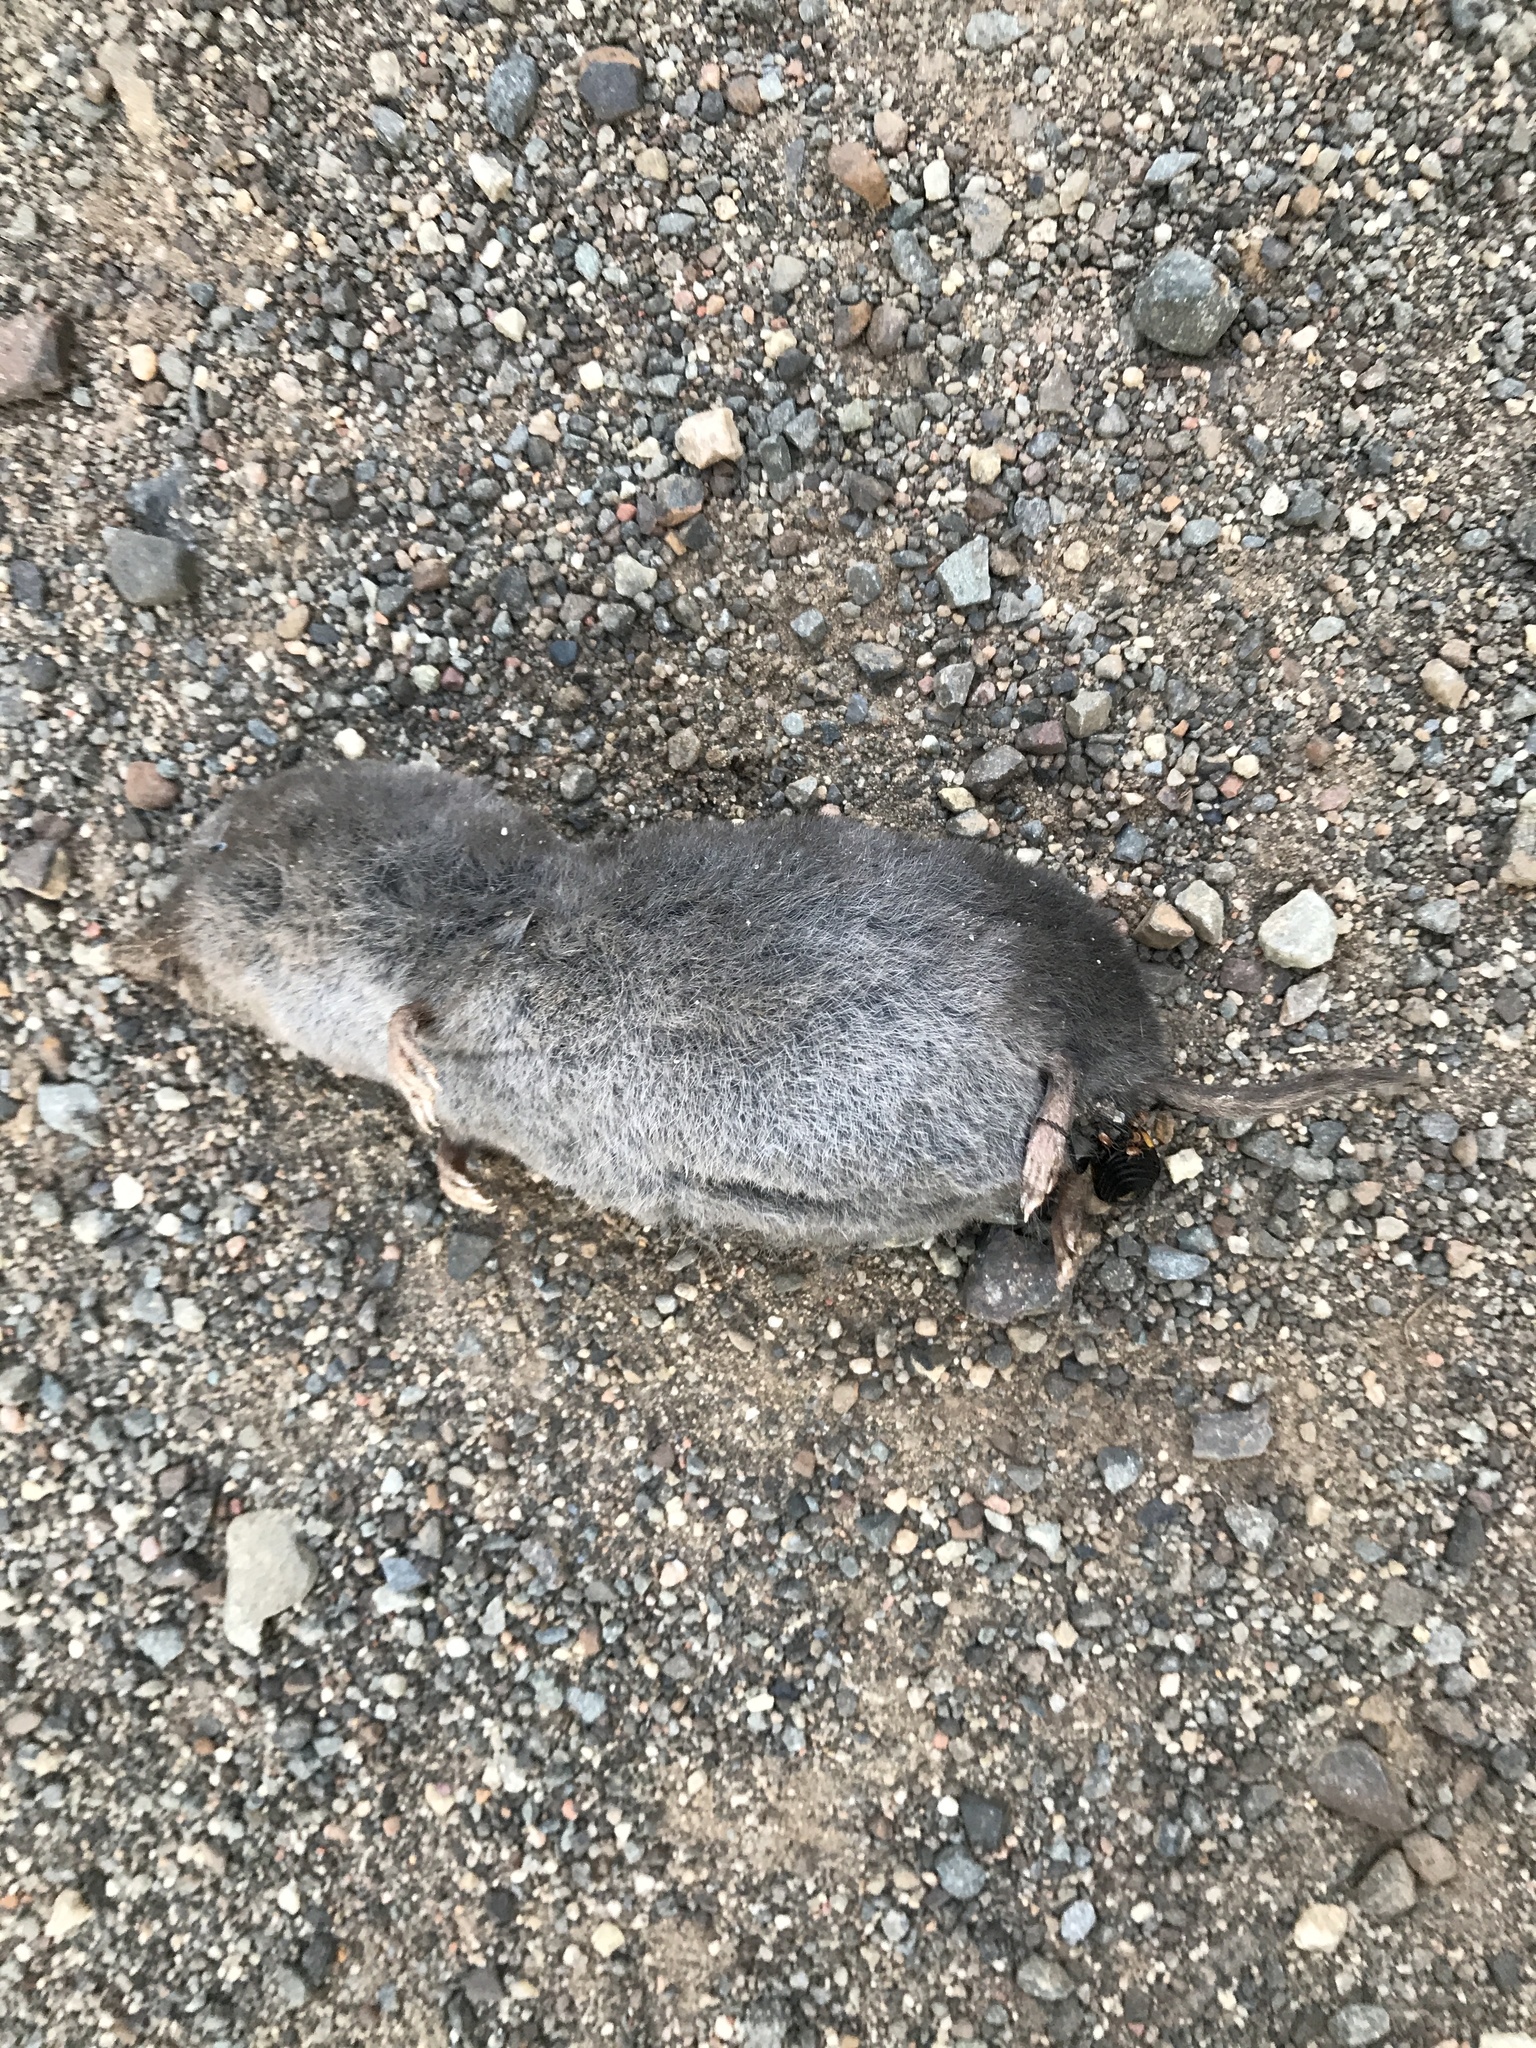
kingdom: Animalia
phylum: Chordata
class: Mammalia
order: Soricomorpha
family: Soricidae
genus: Blarina
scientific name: Blarina brevicauda
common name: Northern short-tailed shrew
